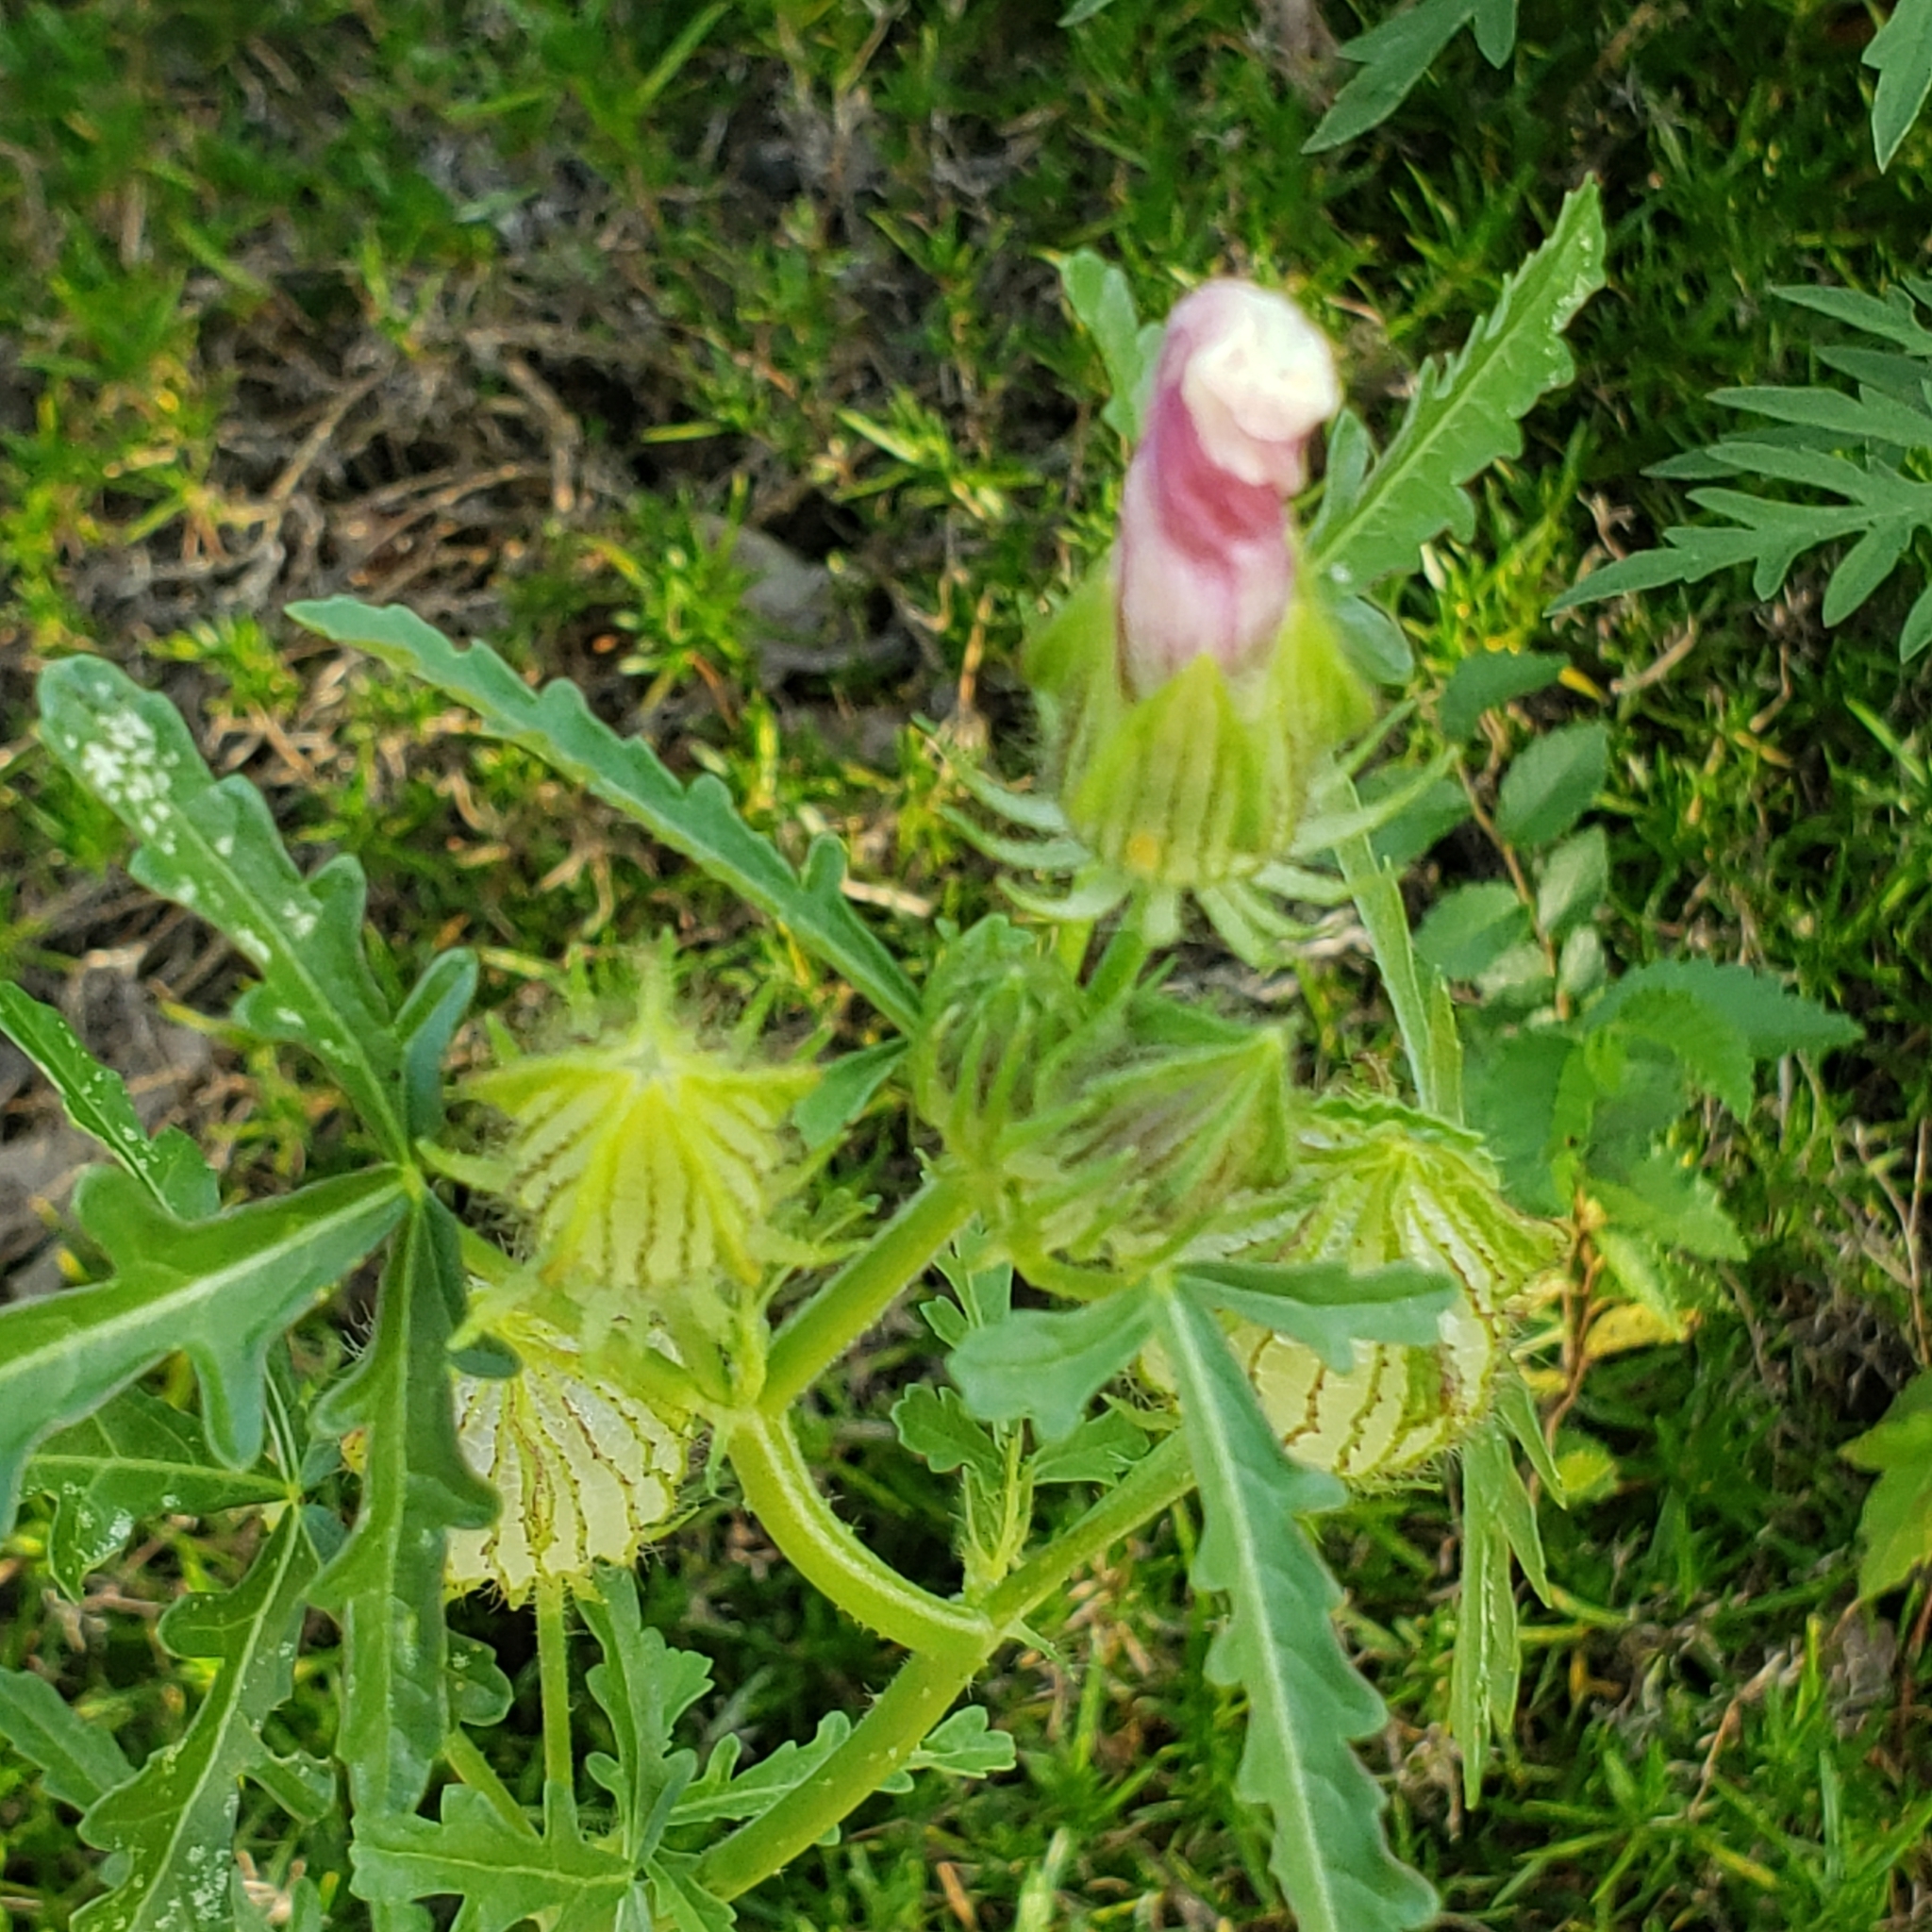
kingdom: Plantae
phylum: Tracheophyta
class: Magnoliopsida
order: Malvales
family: Malvaceae
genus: Hibiscus
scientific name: Hibiscus trionum
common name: Bladder ketmia
